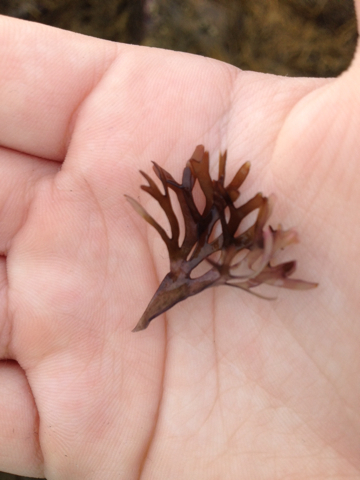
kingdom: Plantae
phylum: Rhodophyta
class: Florideophyceae
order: Gigartinales
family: Gigartinaceae
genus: Chondrus
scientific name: Chondrus crispus
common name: Carrageen
